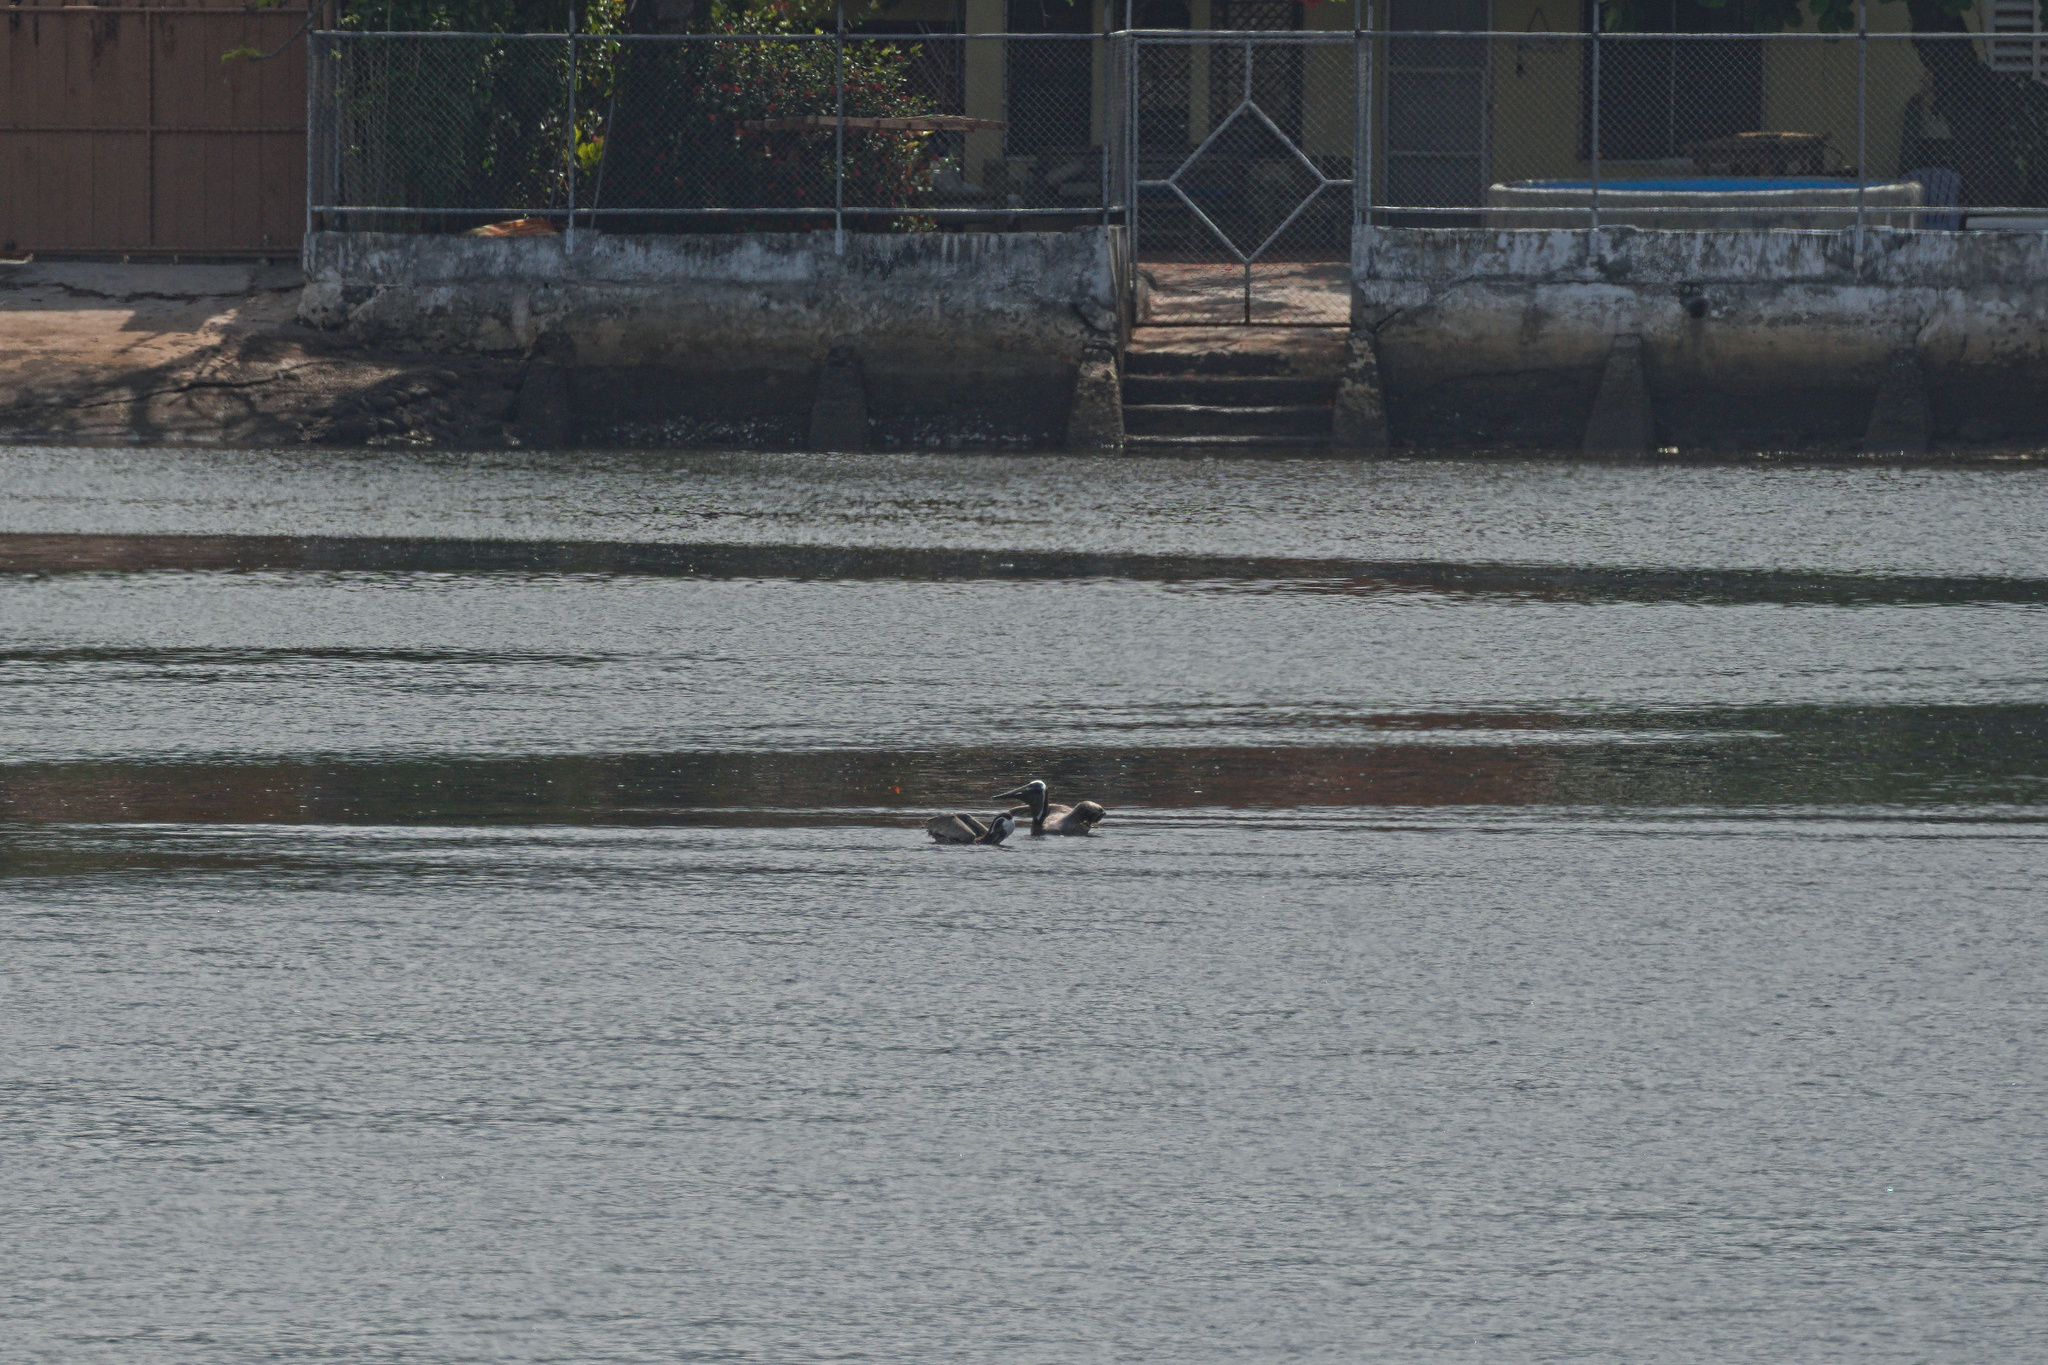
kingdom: Animalia
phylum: Chordata
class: Aves
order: Pelecaniformes
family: Pelecanidae
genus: Pelecanus
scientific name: Pelecanus occidentalis
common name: Brown pelican
